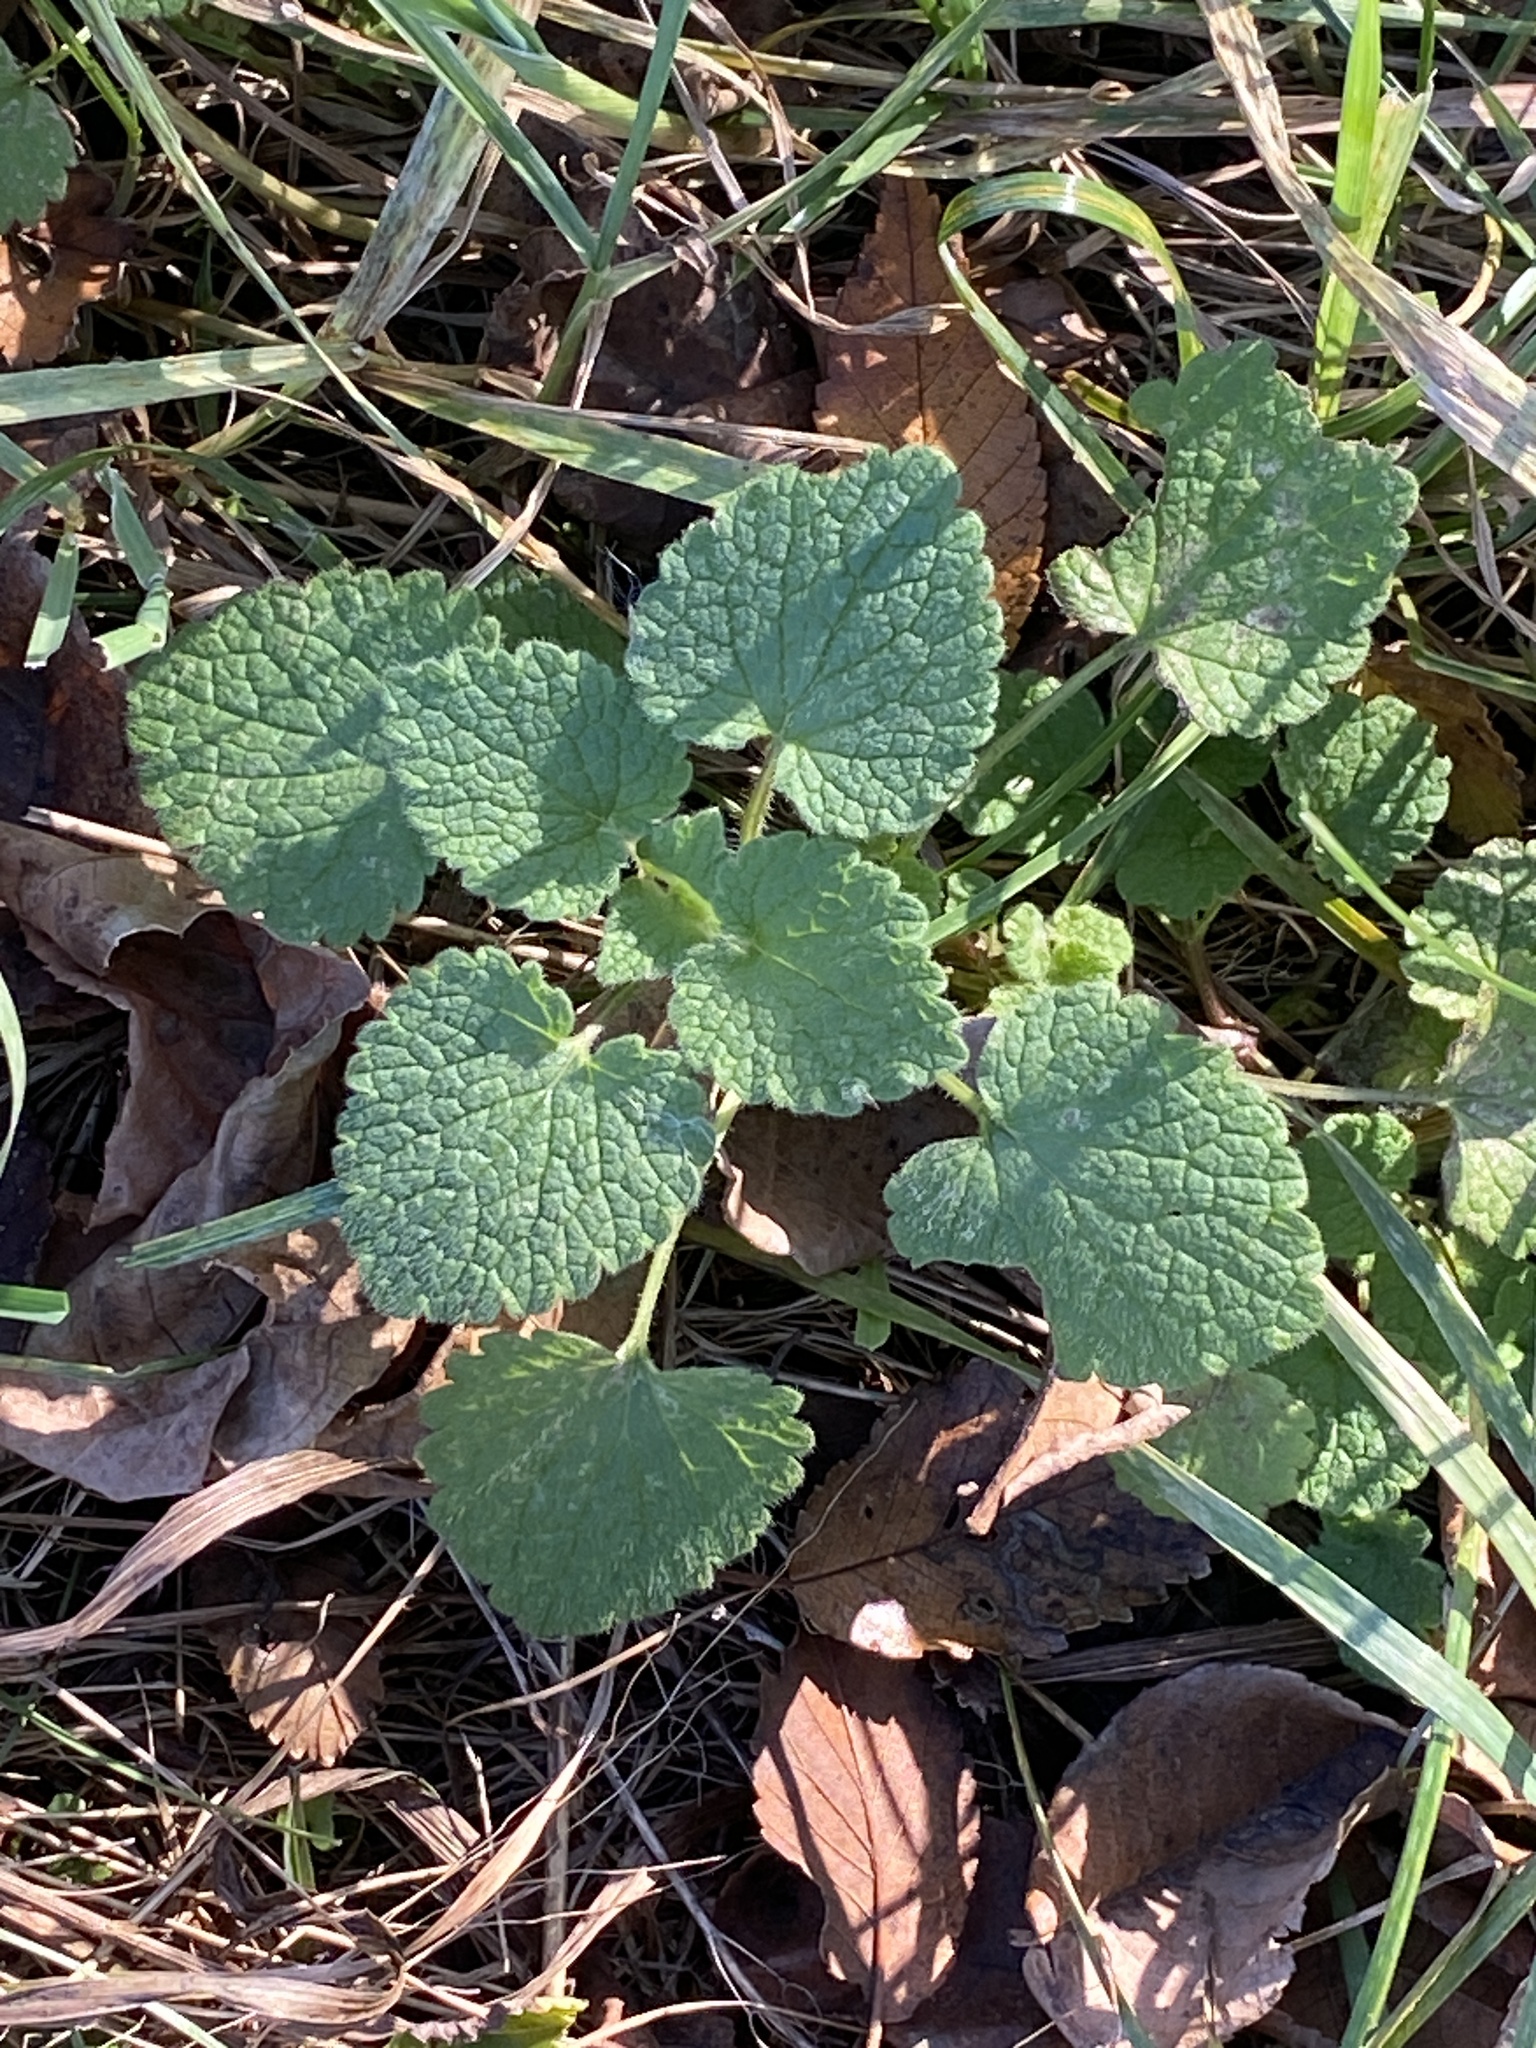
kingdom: Plantae
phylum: Tracheophyta
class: Magnoliopsida
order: Lamiales
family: Lamiaceae
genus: Lamium
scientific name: Lamium purpureum
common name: Red dead-nettle
